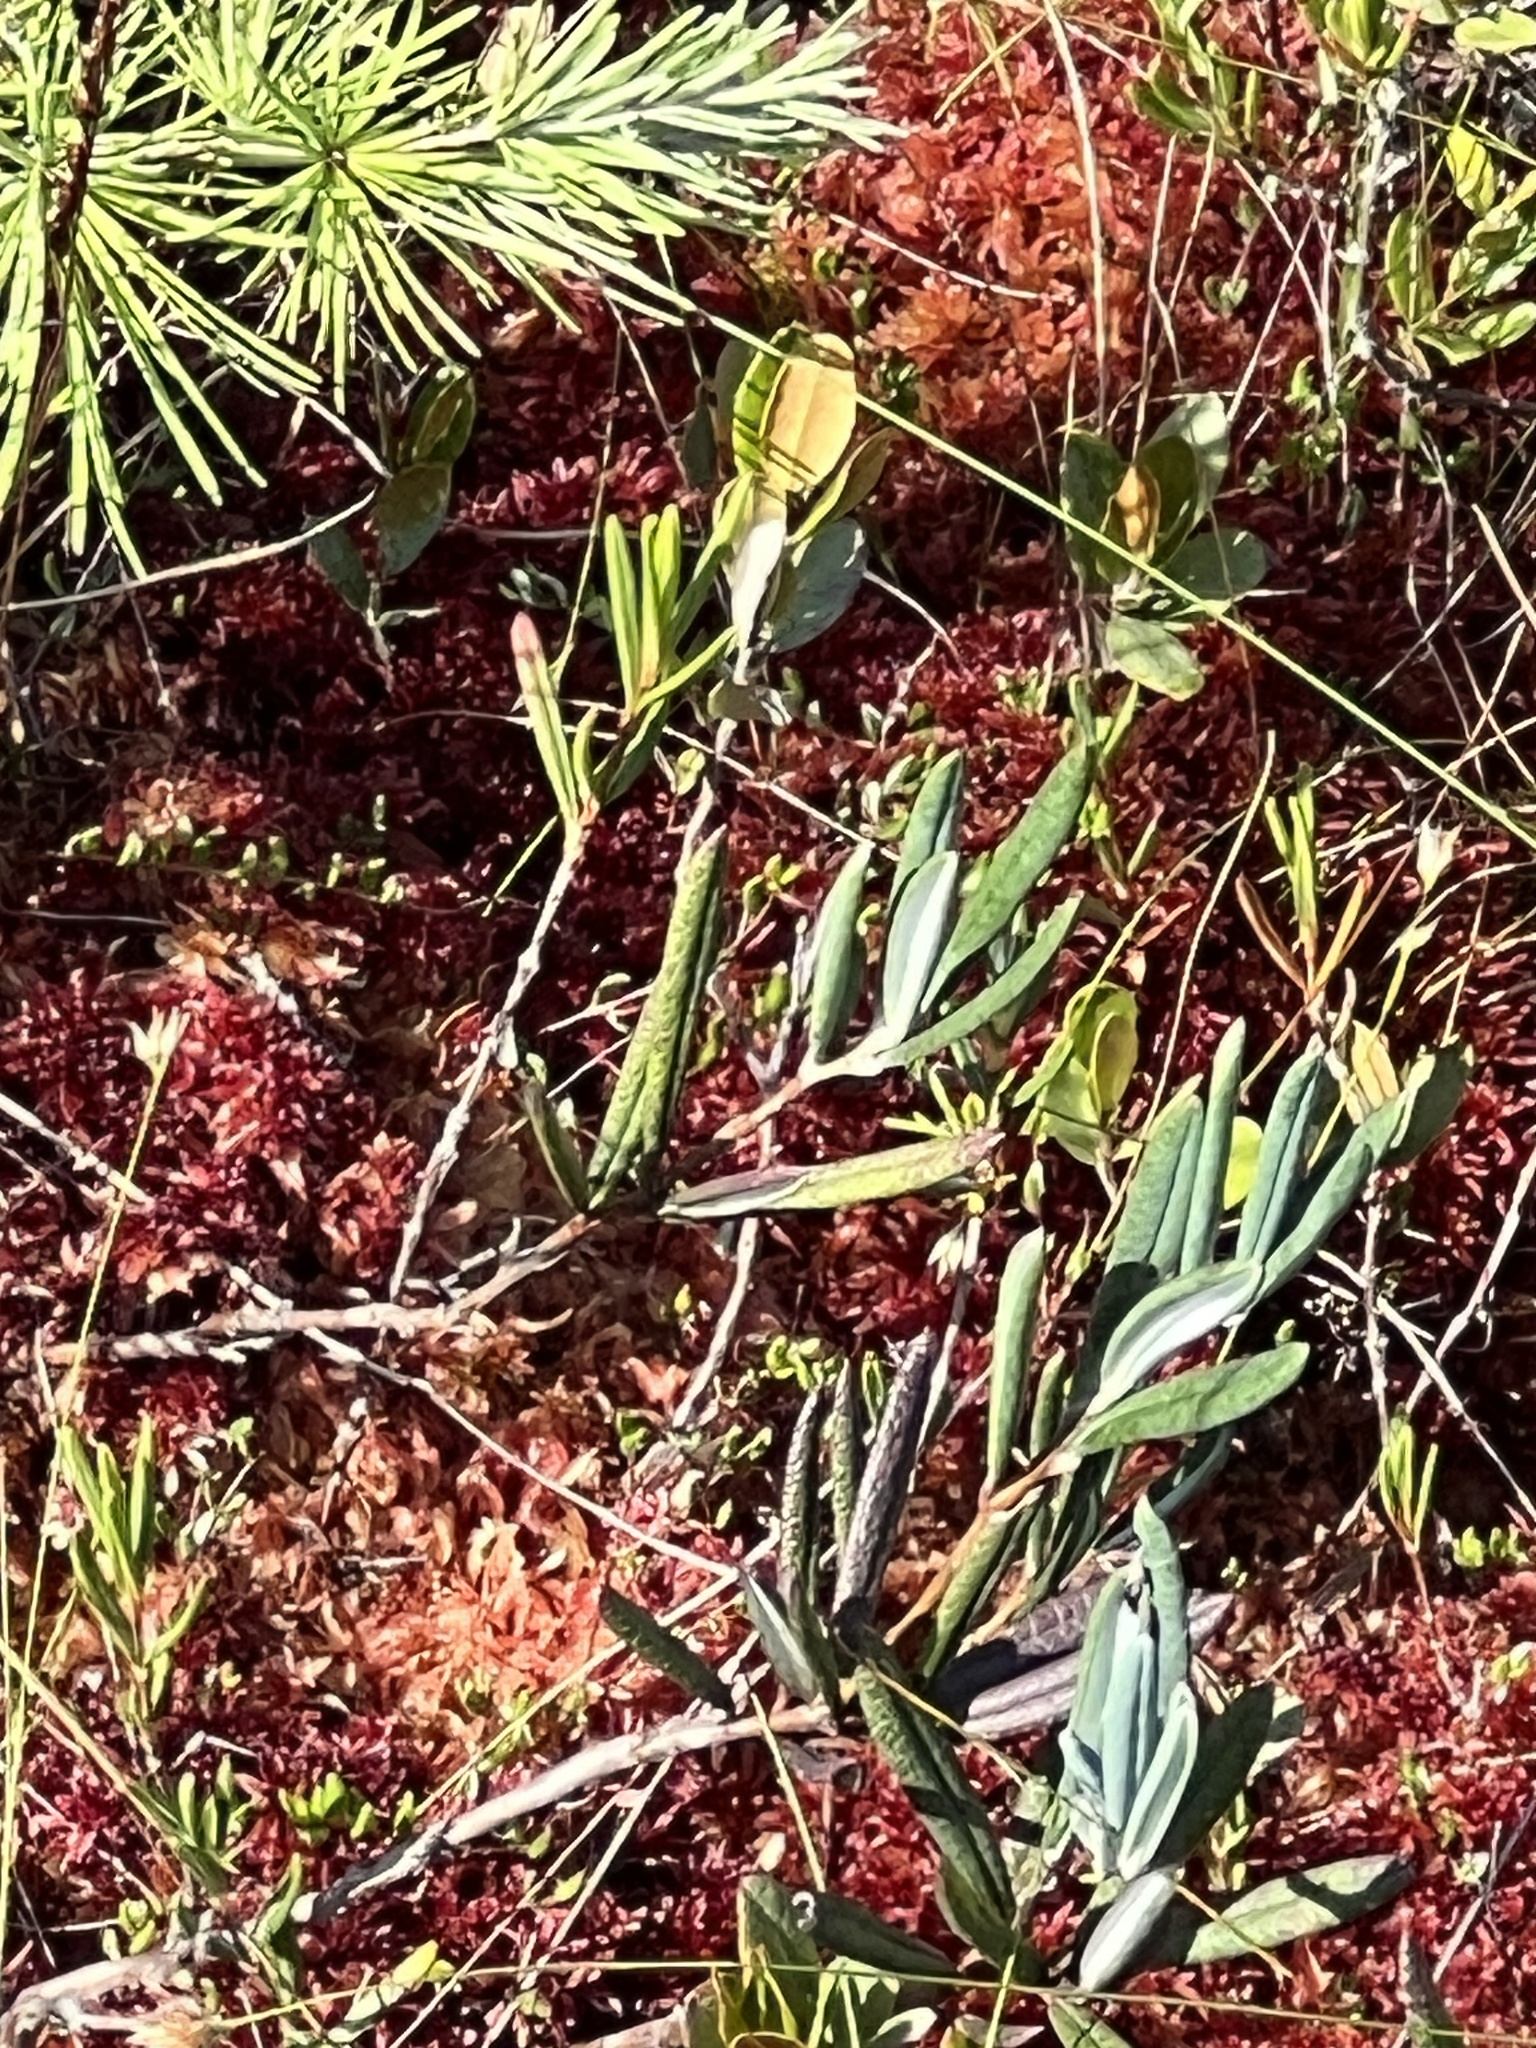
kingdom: Plantae
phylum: Tracheophyta
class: Magnoliopsida
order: Ericales
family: Ericaceae
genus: Andromeda
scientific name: Andromeda polifolia
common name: Bog-rosemary
